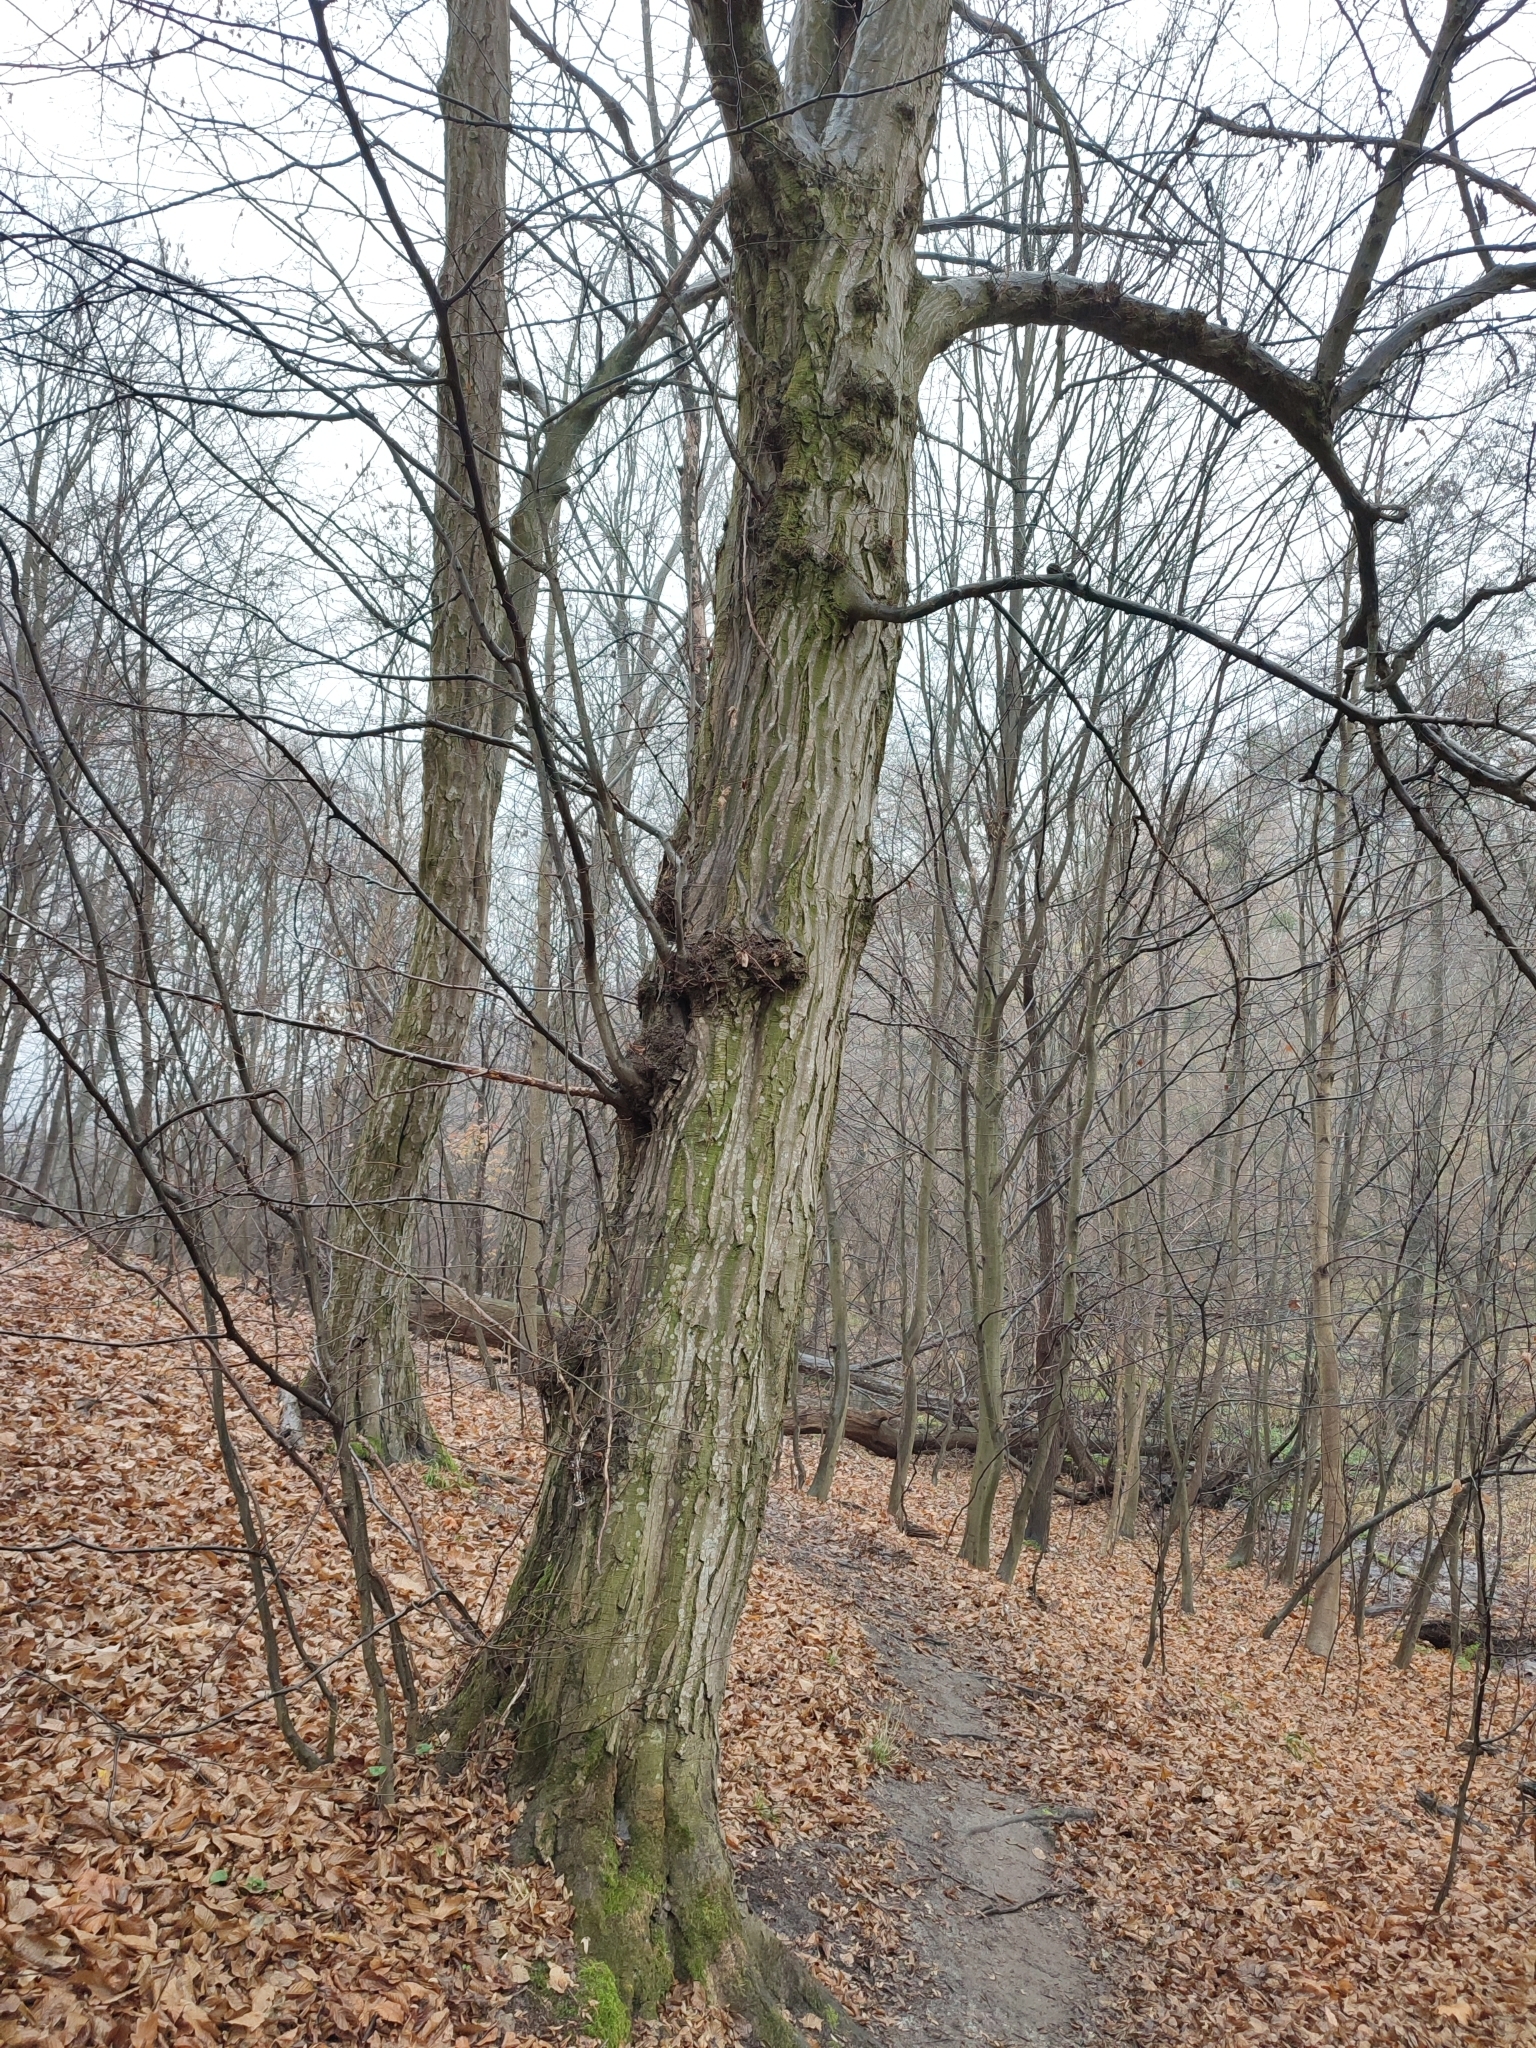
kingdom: Plantae
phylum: Tracheophyta
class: Magnoliopsida
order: Fagales
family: Betulaceae
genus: Carpinus
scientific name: Carpinus betulus
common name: Hornbeam
